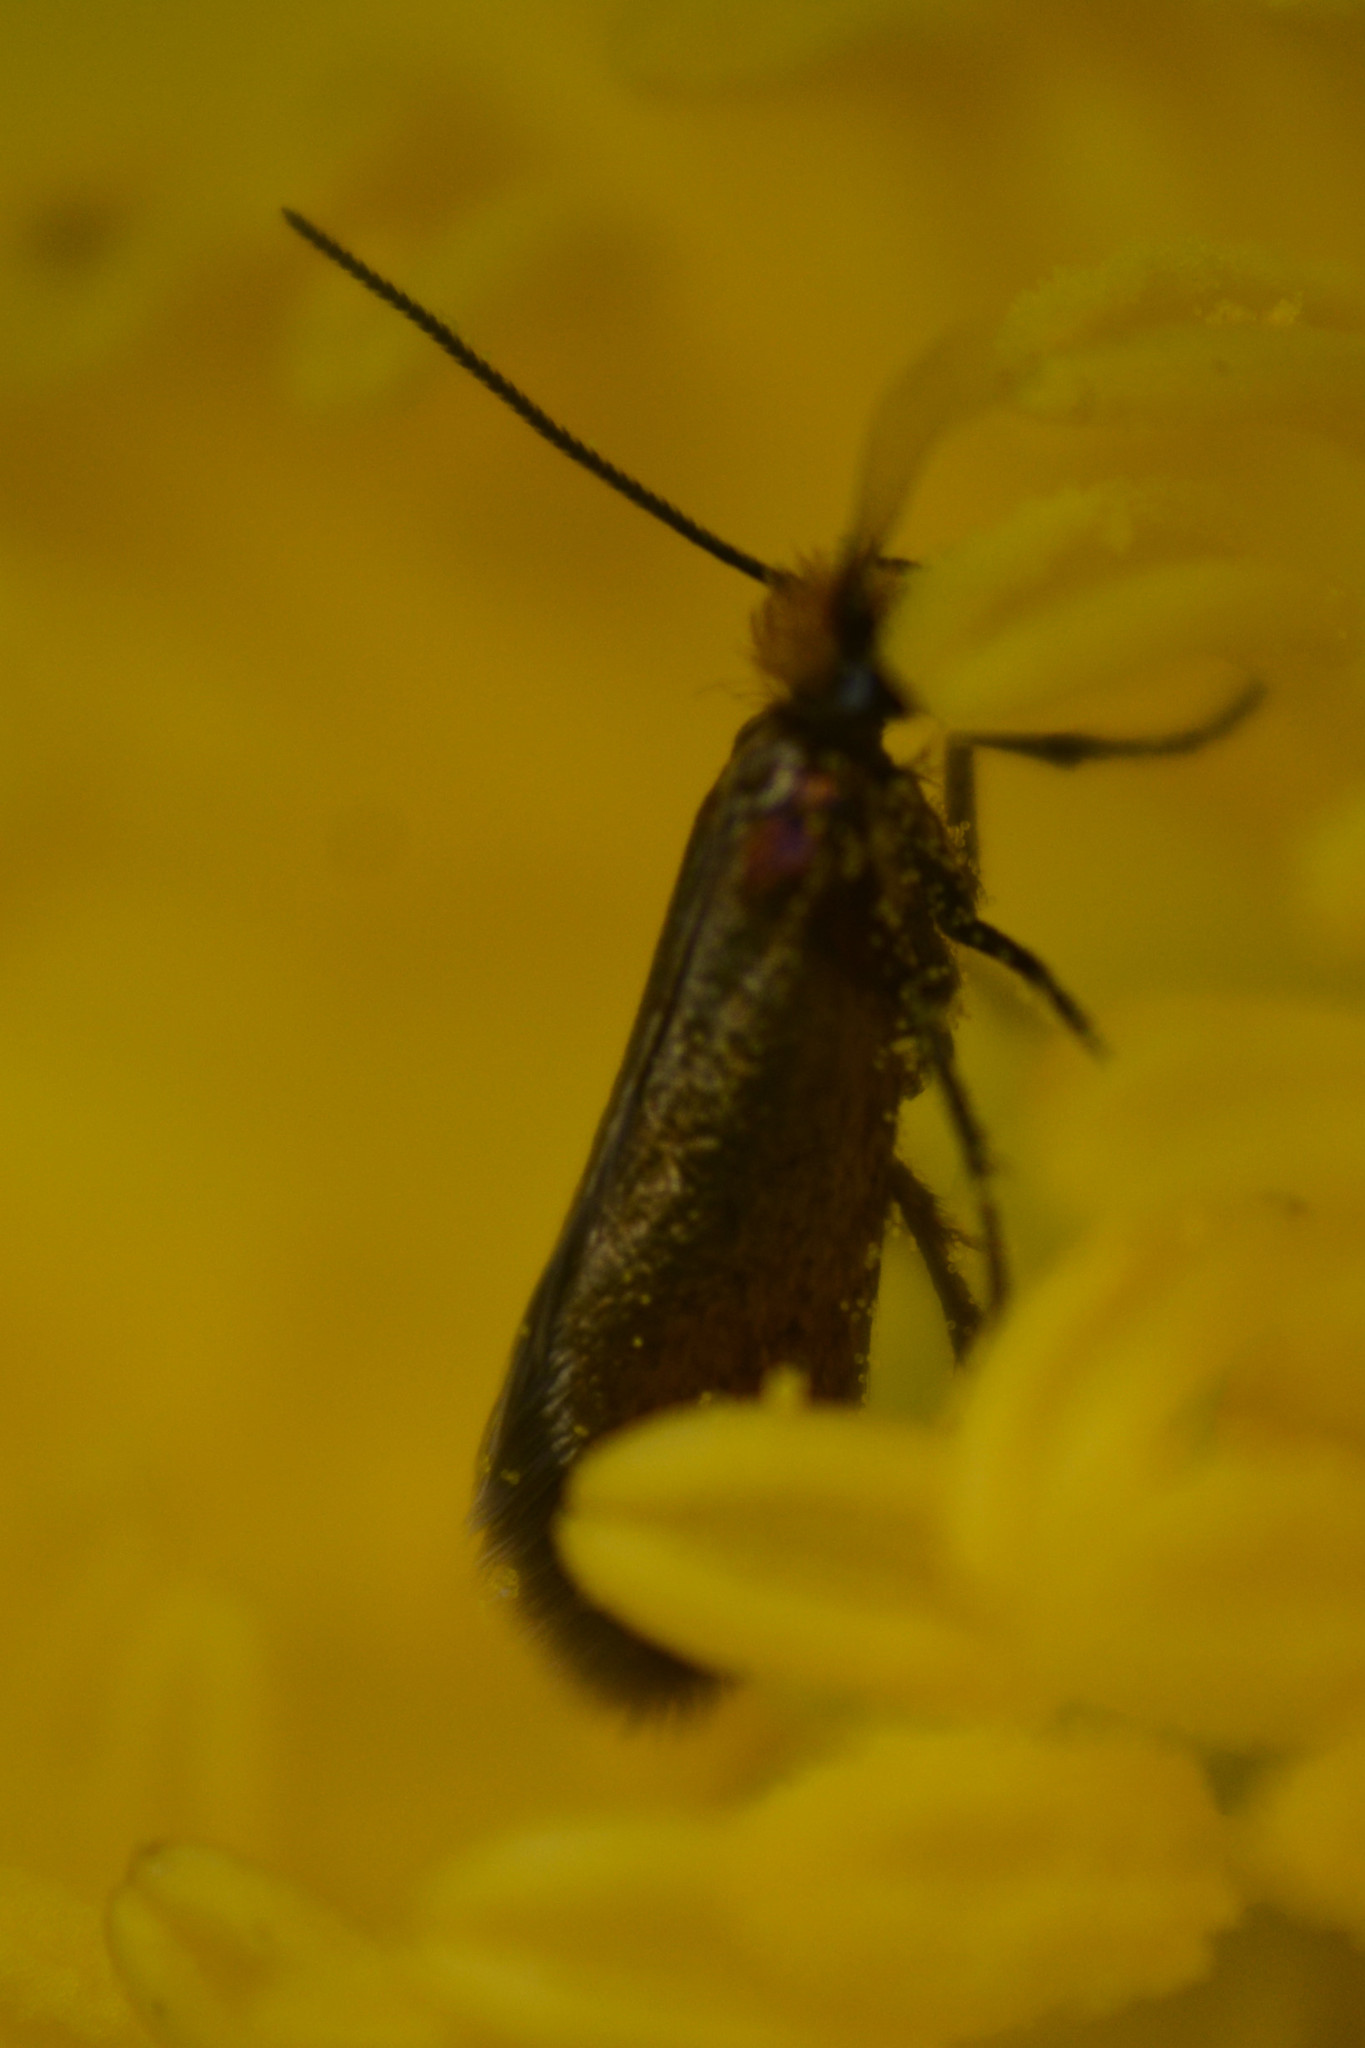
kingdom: Animalia
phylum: Arthropoda
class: Insecta
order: Lepidoptera
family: Micropterigidae
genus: Micropterix
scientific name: Micropterix calthella
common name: Plain gold
